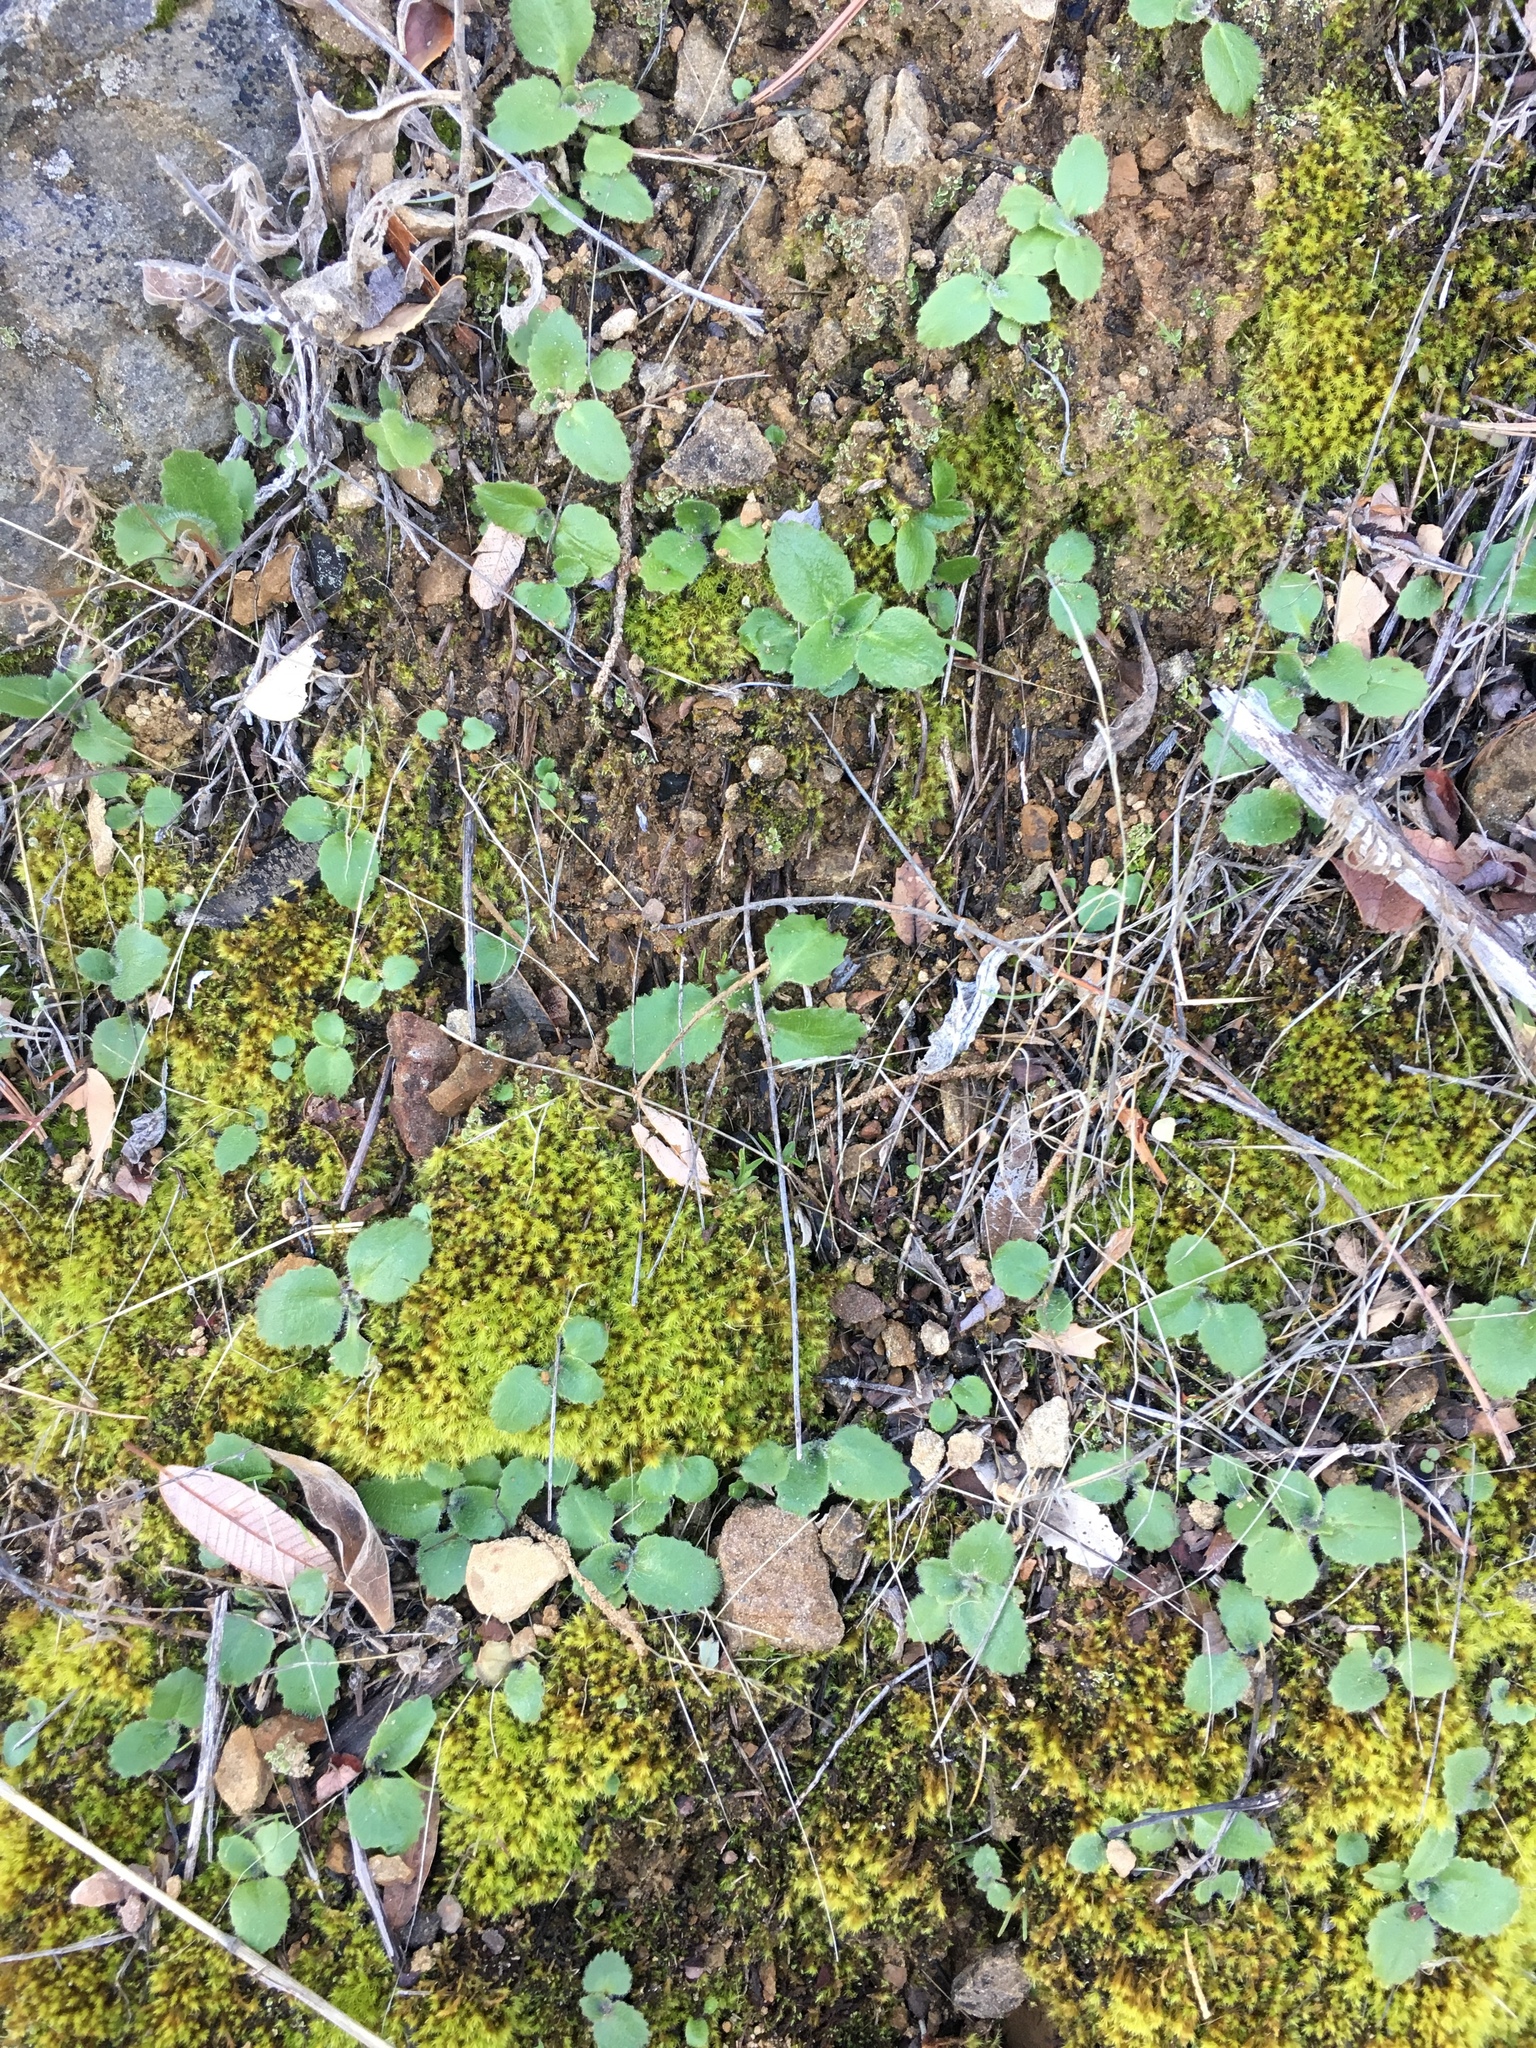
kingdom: Plantae
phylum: Tracheophyta
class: Magnoliopsida
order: Saxifragales
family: Saxifragaceae
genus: Micranthes
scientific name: Micranthes californica
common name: California saxifrage
